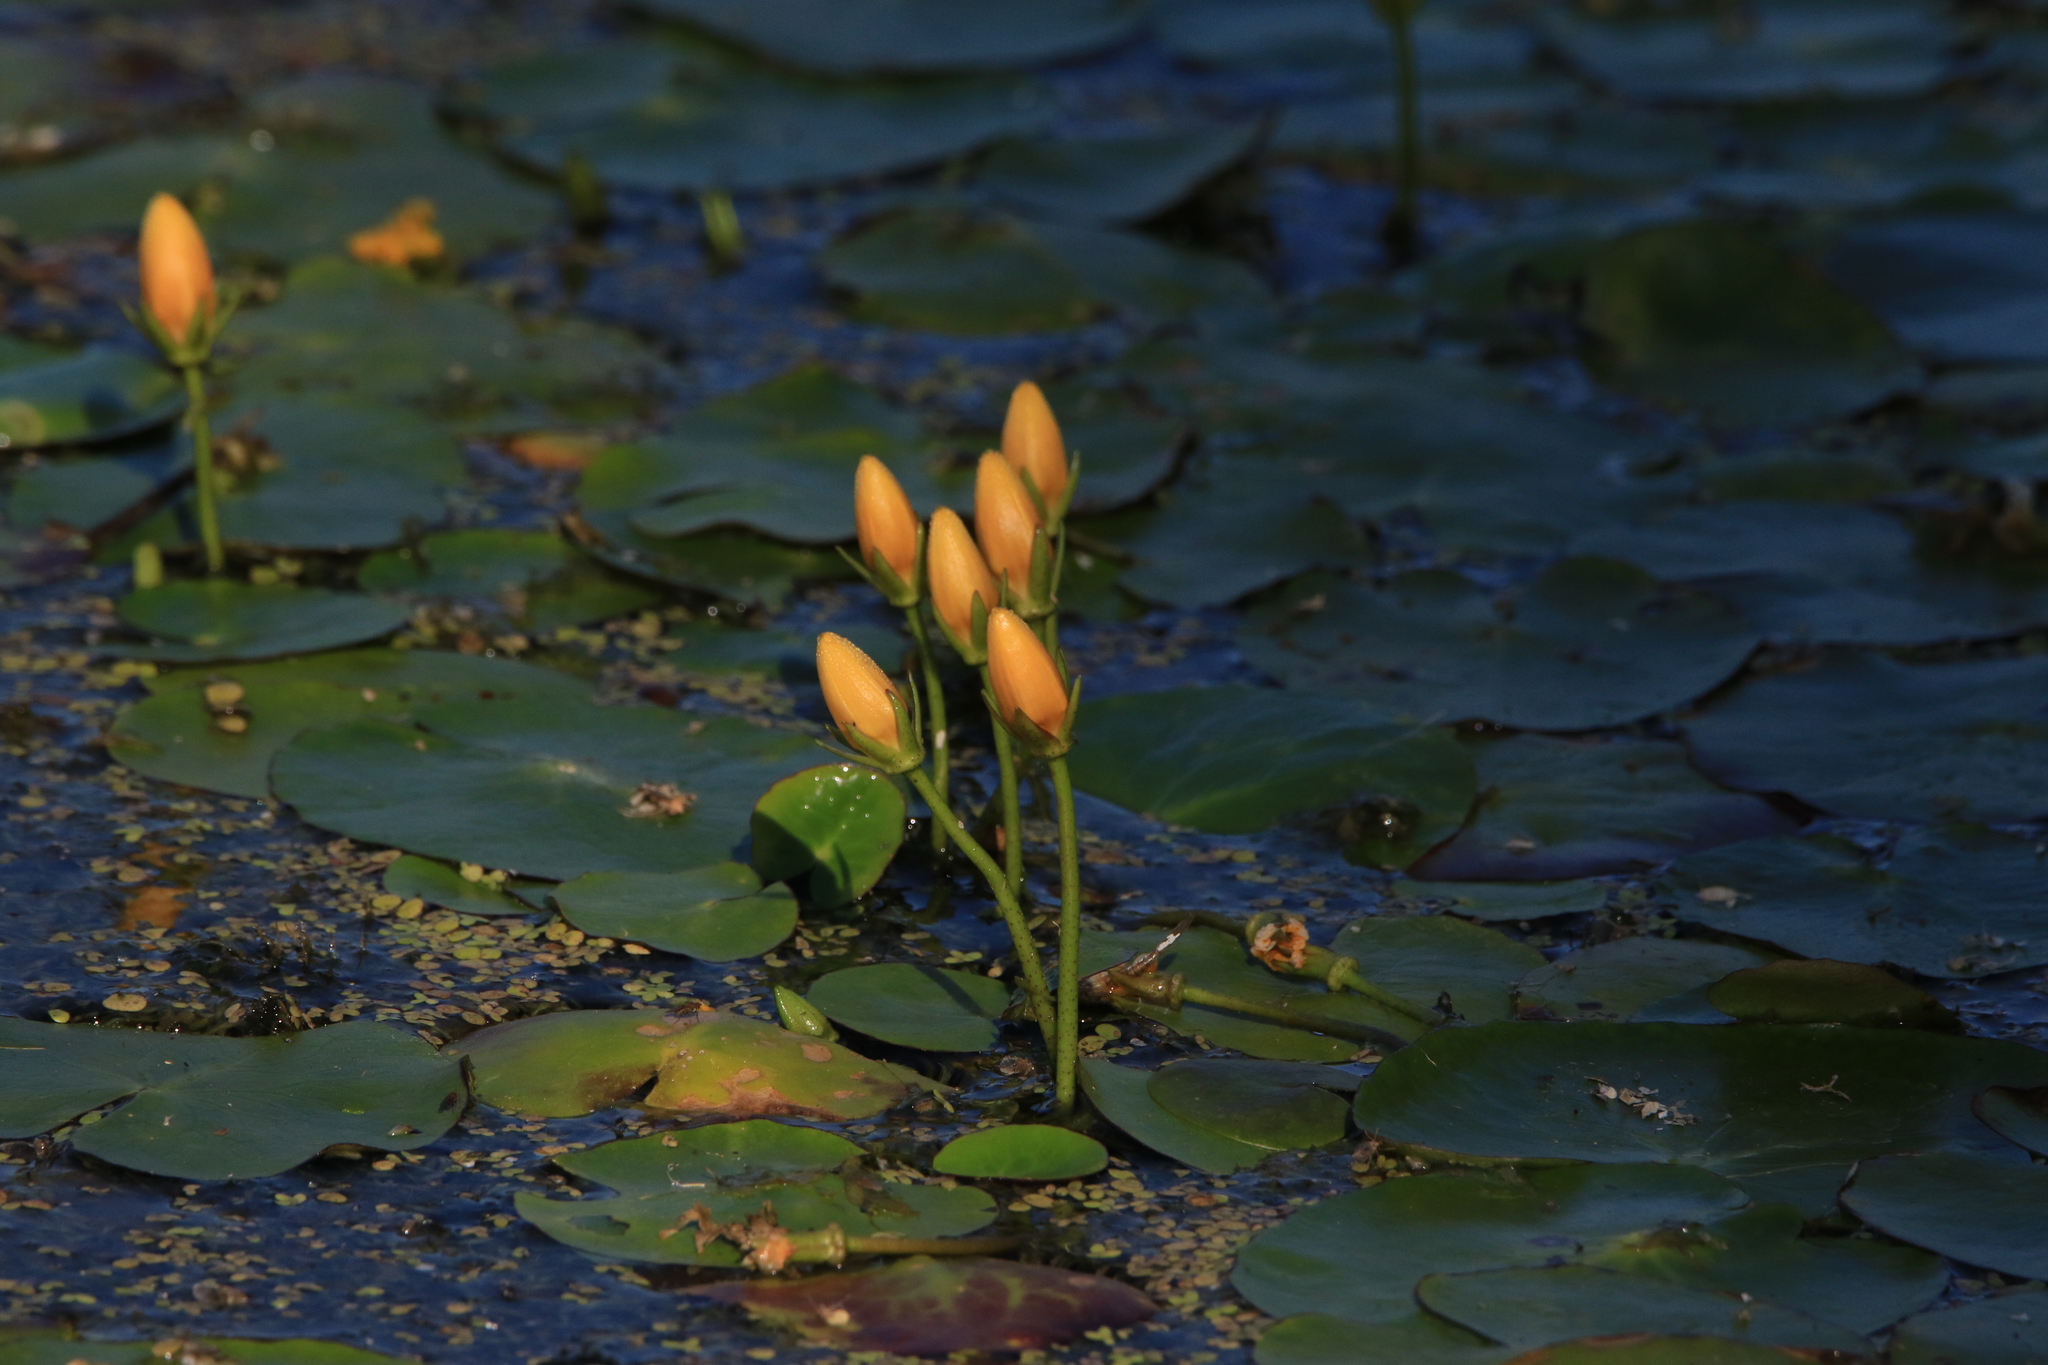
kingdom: Plantae
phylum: Tracheophyta
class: Magnoliopsida
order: Asterales
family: Menyanthaceae
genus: Nymphoides
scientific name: Nymphoides peltata
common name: Fringed water-lily
